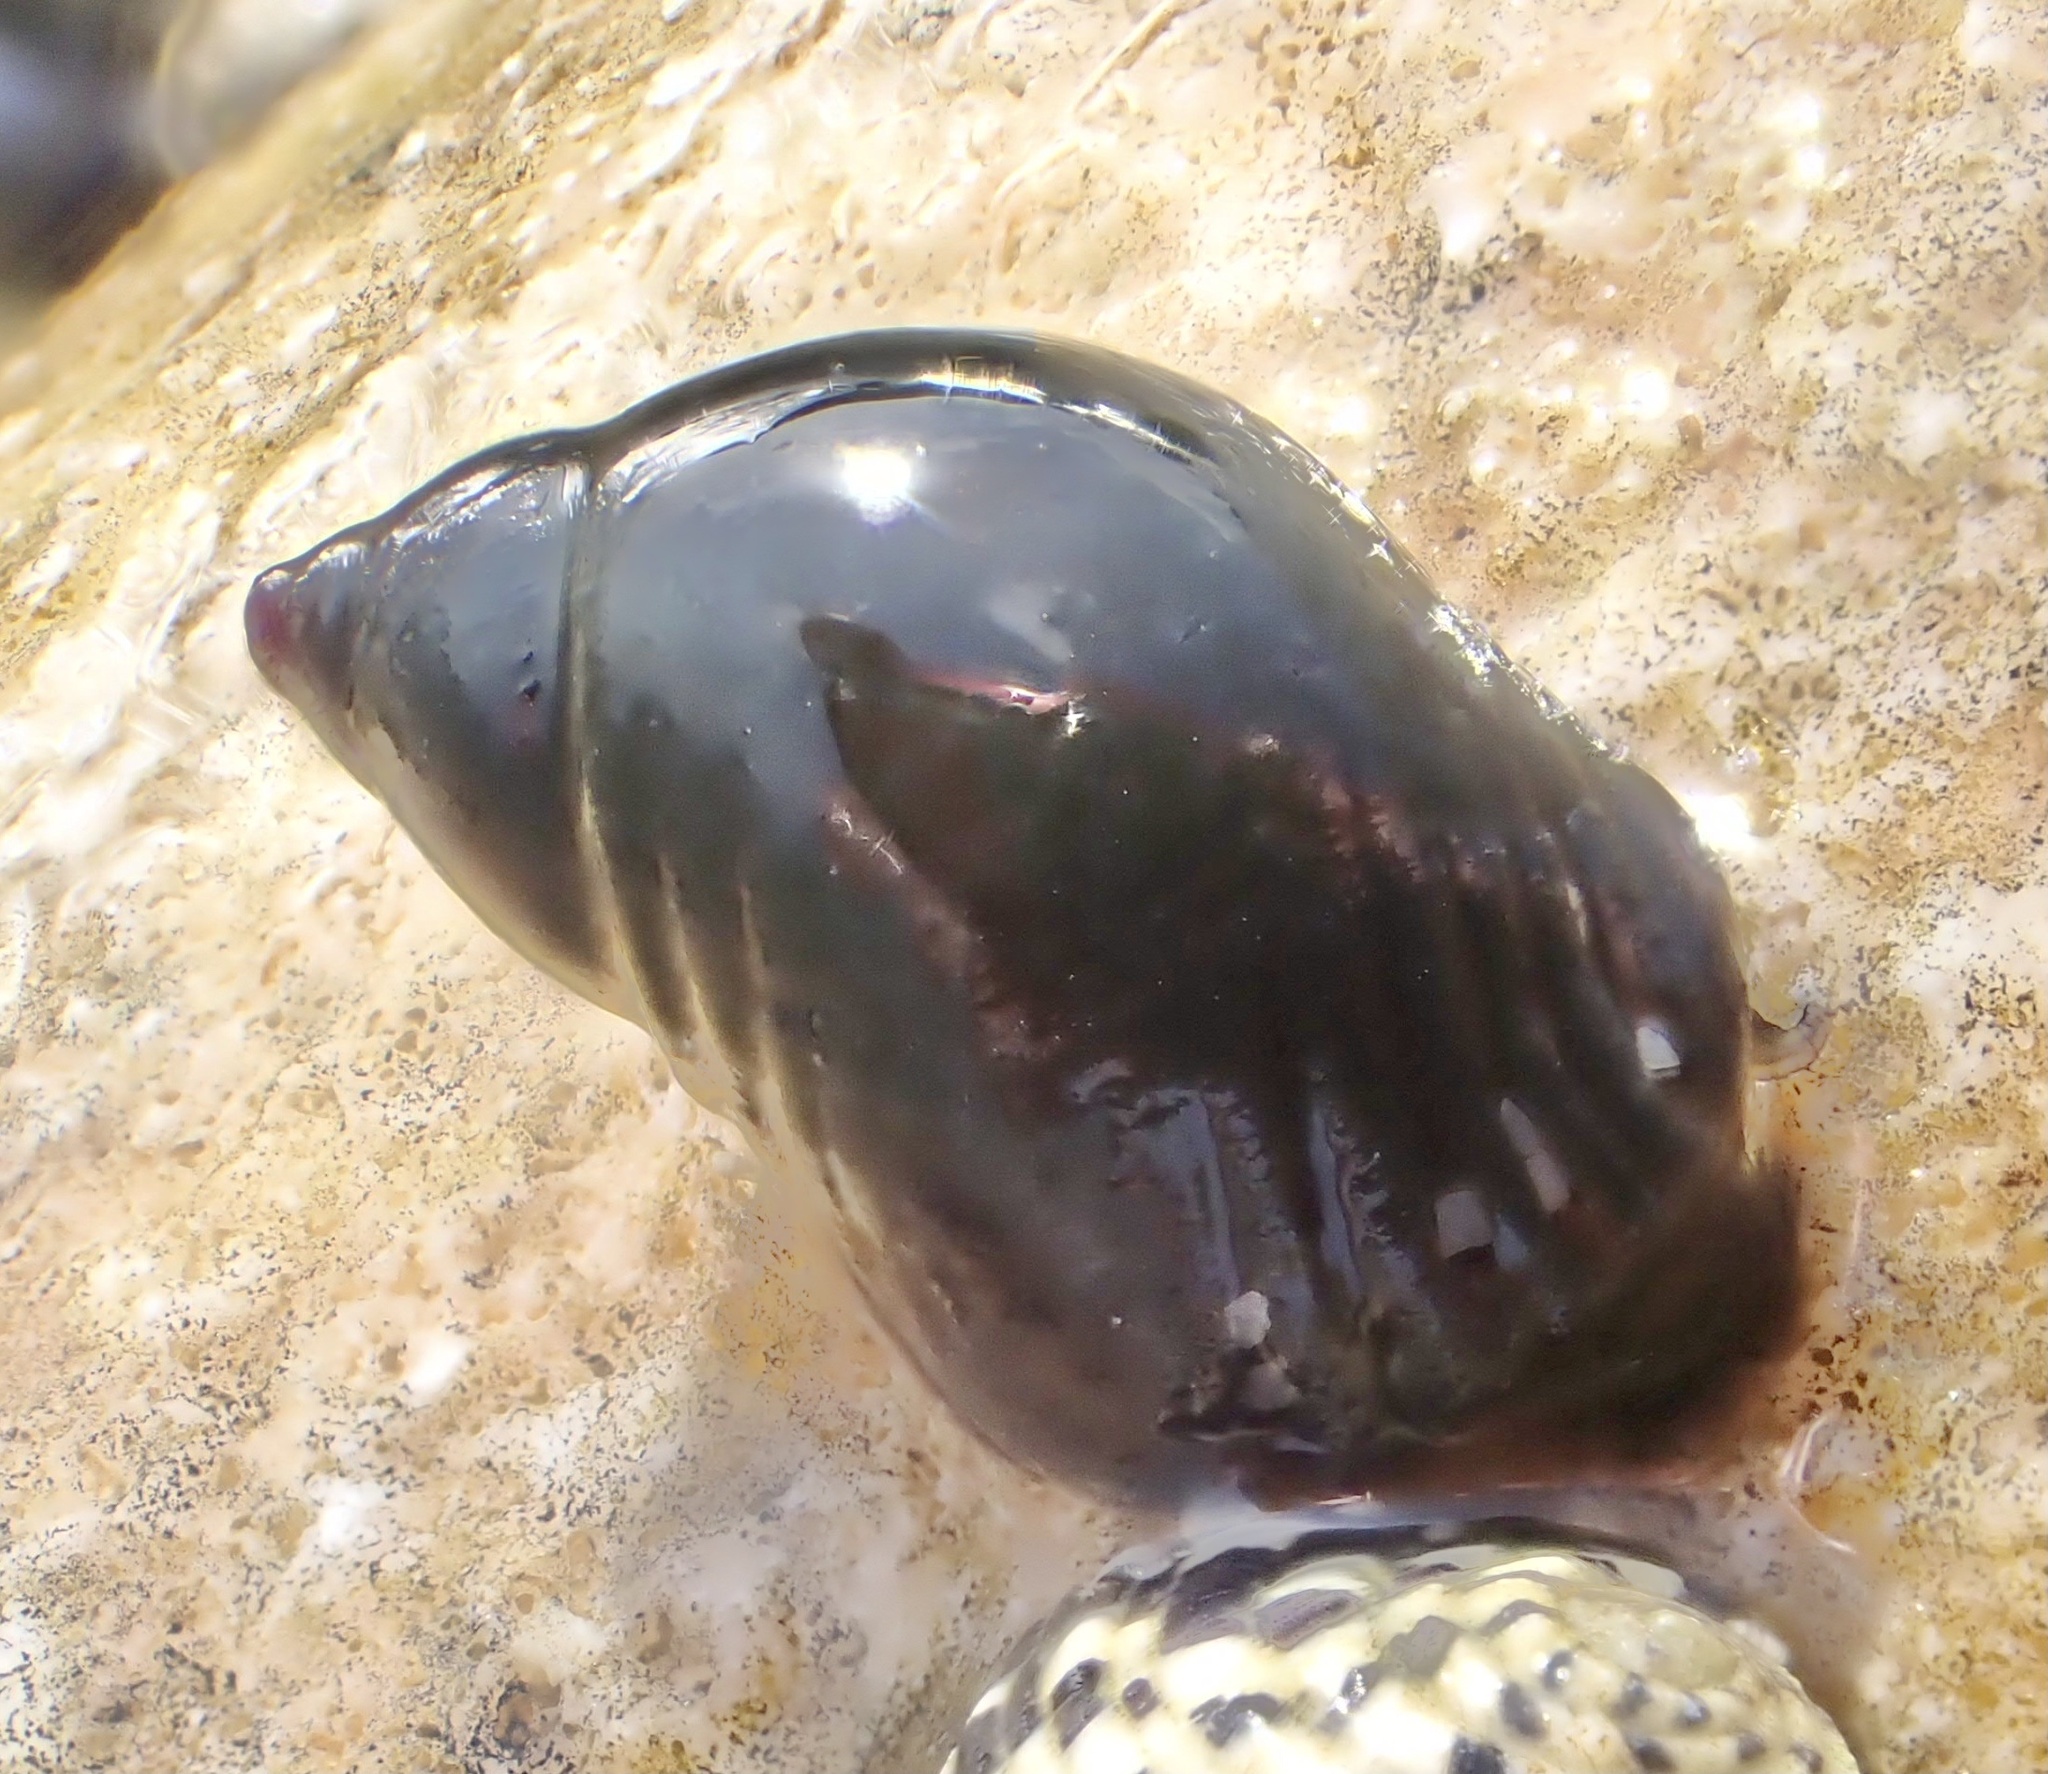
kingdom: Animalia
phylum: Mollusca
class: Gastropoda
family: Planaxidae
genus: Supplanaxis
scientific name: Supplanaxis nucleus
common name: Black atlantic planaxis
